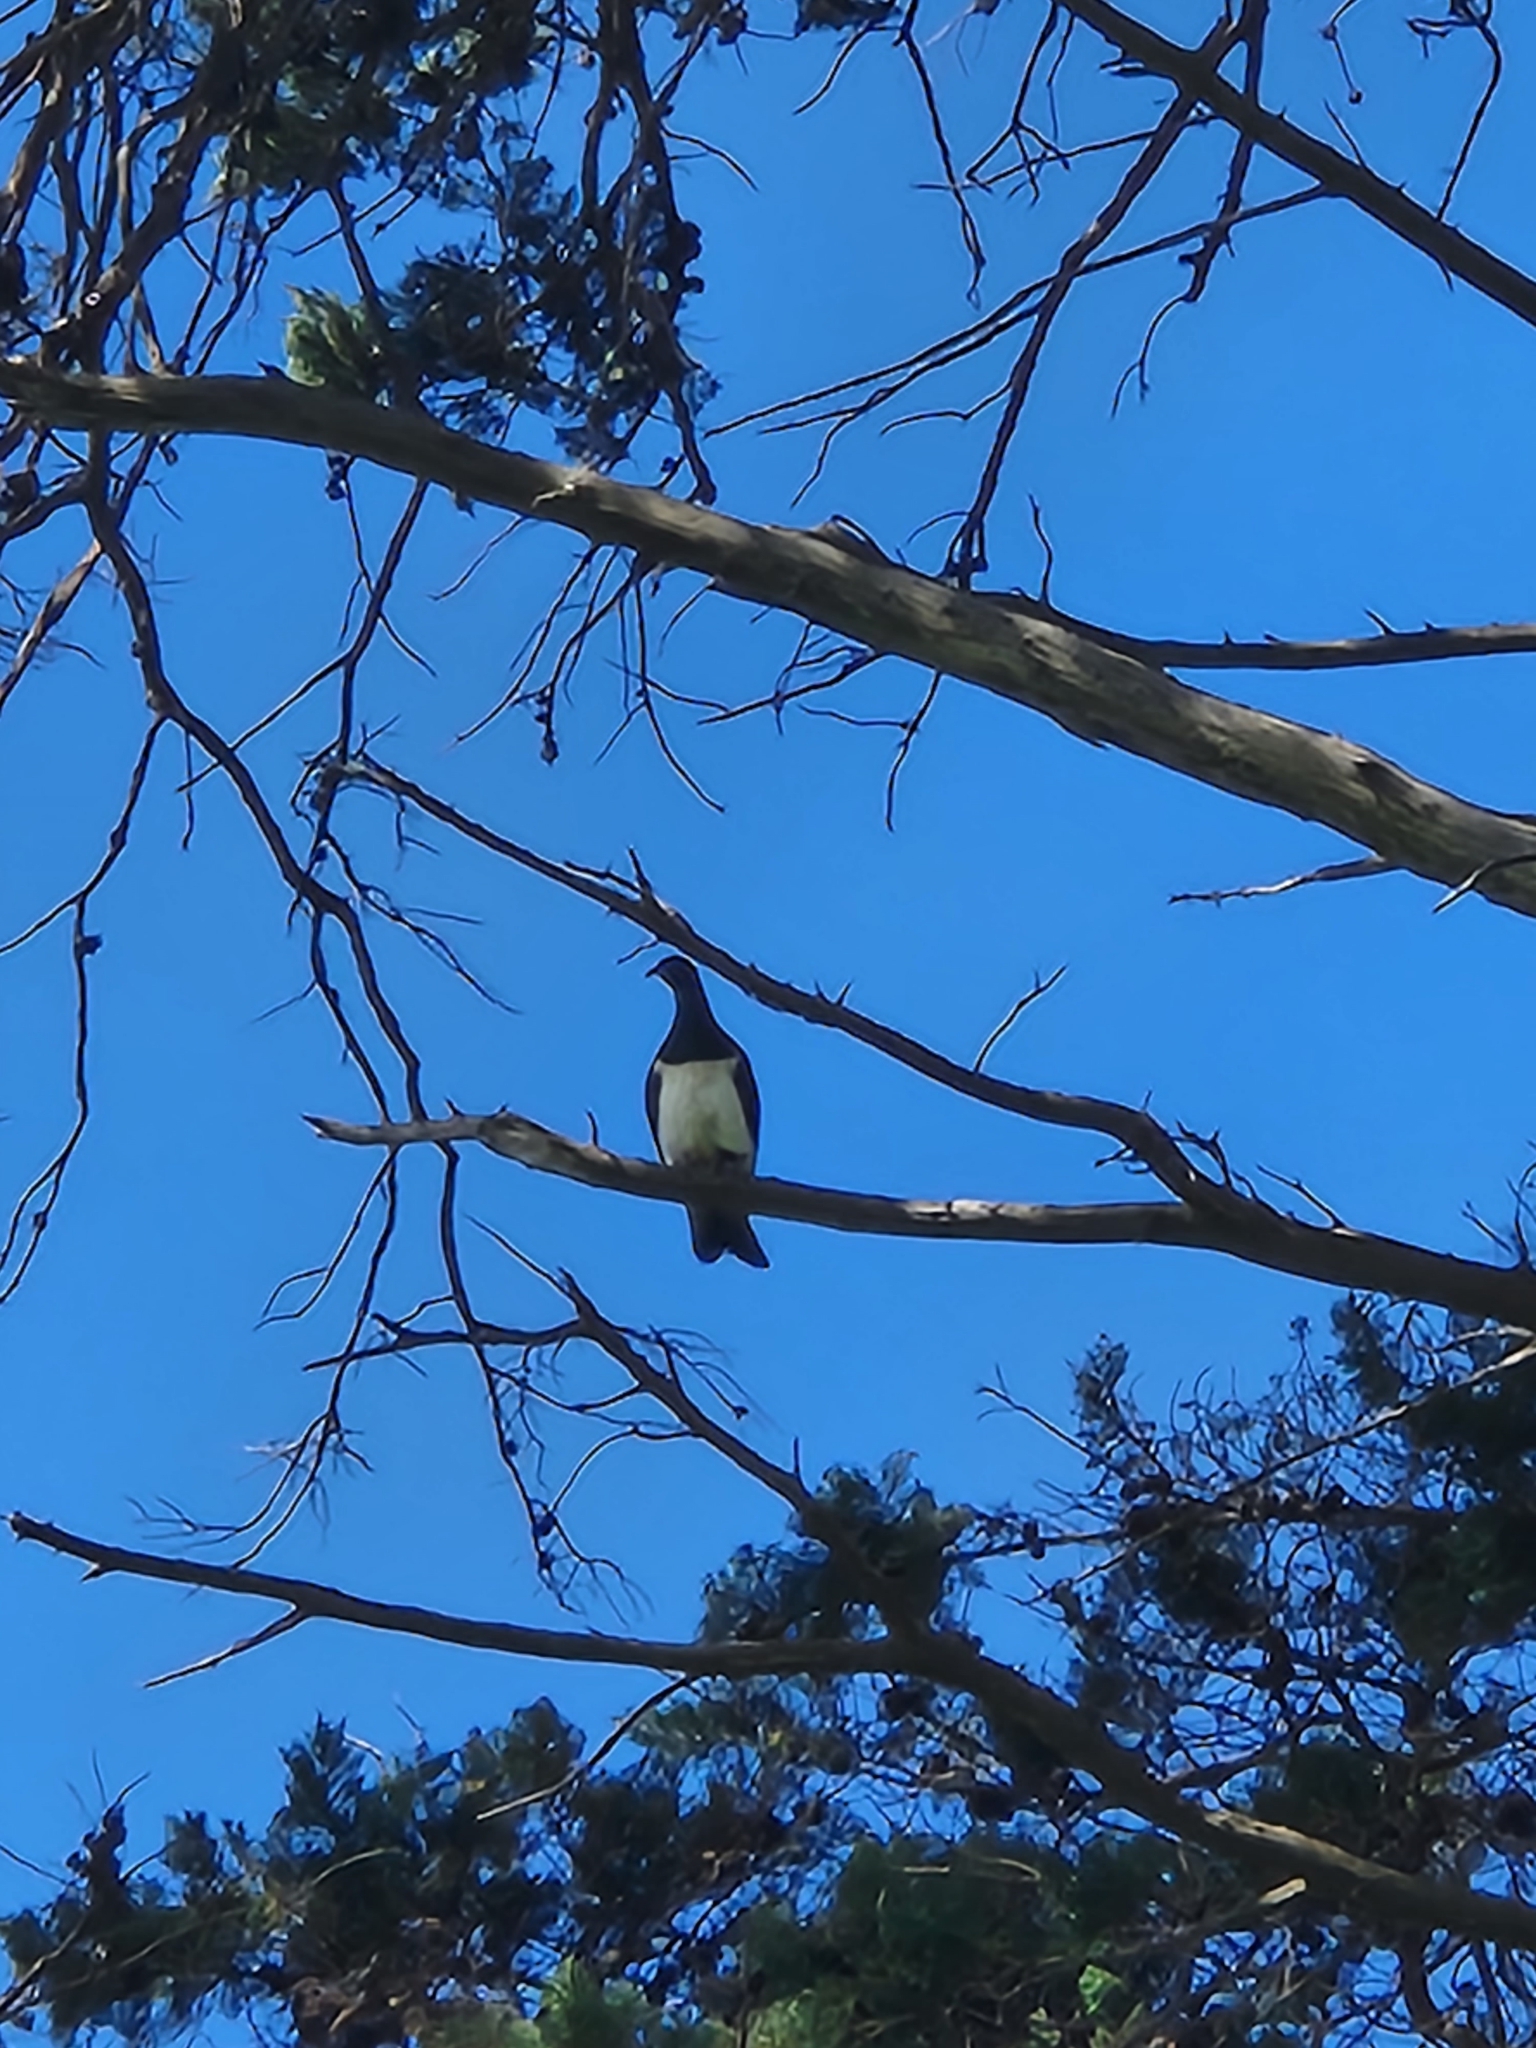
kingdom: Animalia
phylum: Chordata
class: Aves
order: Columbiformes
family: Columbidae
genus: Hemiphaga
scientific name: Hemiphaga novaeseelandiae
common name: New zealand pigeon
